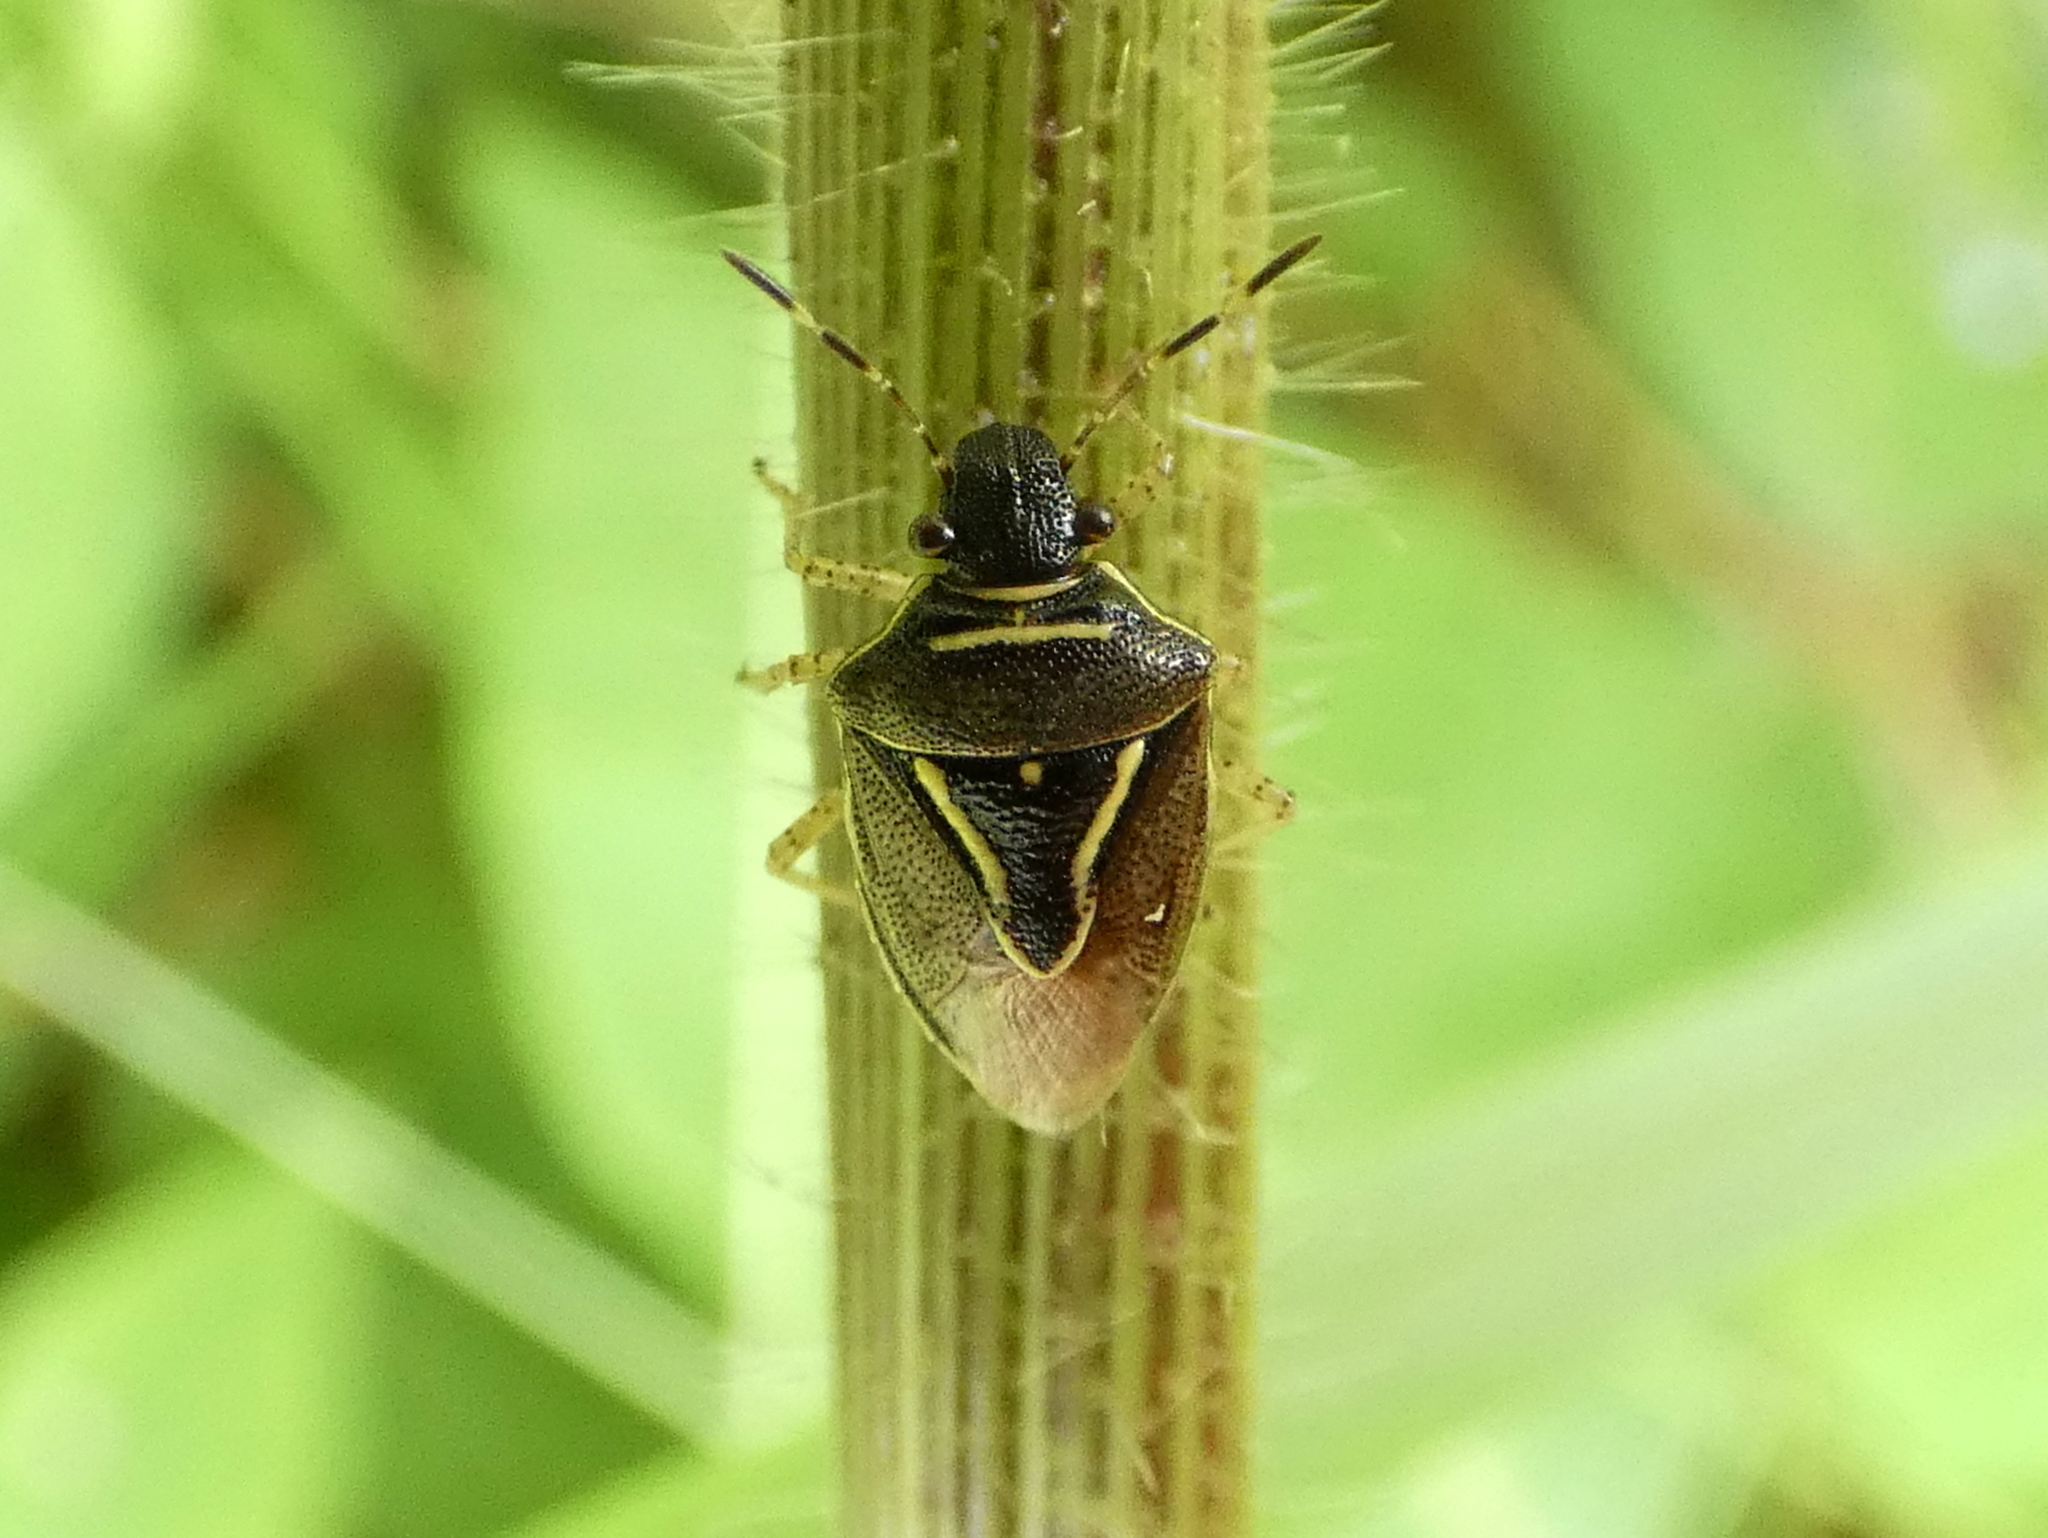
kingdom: Animalia
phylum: Arthropoda
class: Insecta
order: Hemiptera
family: Pentatomidae
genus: Mormidea
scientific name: Mormidea lugens
